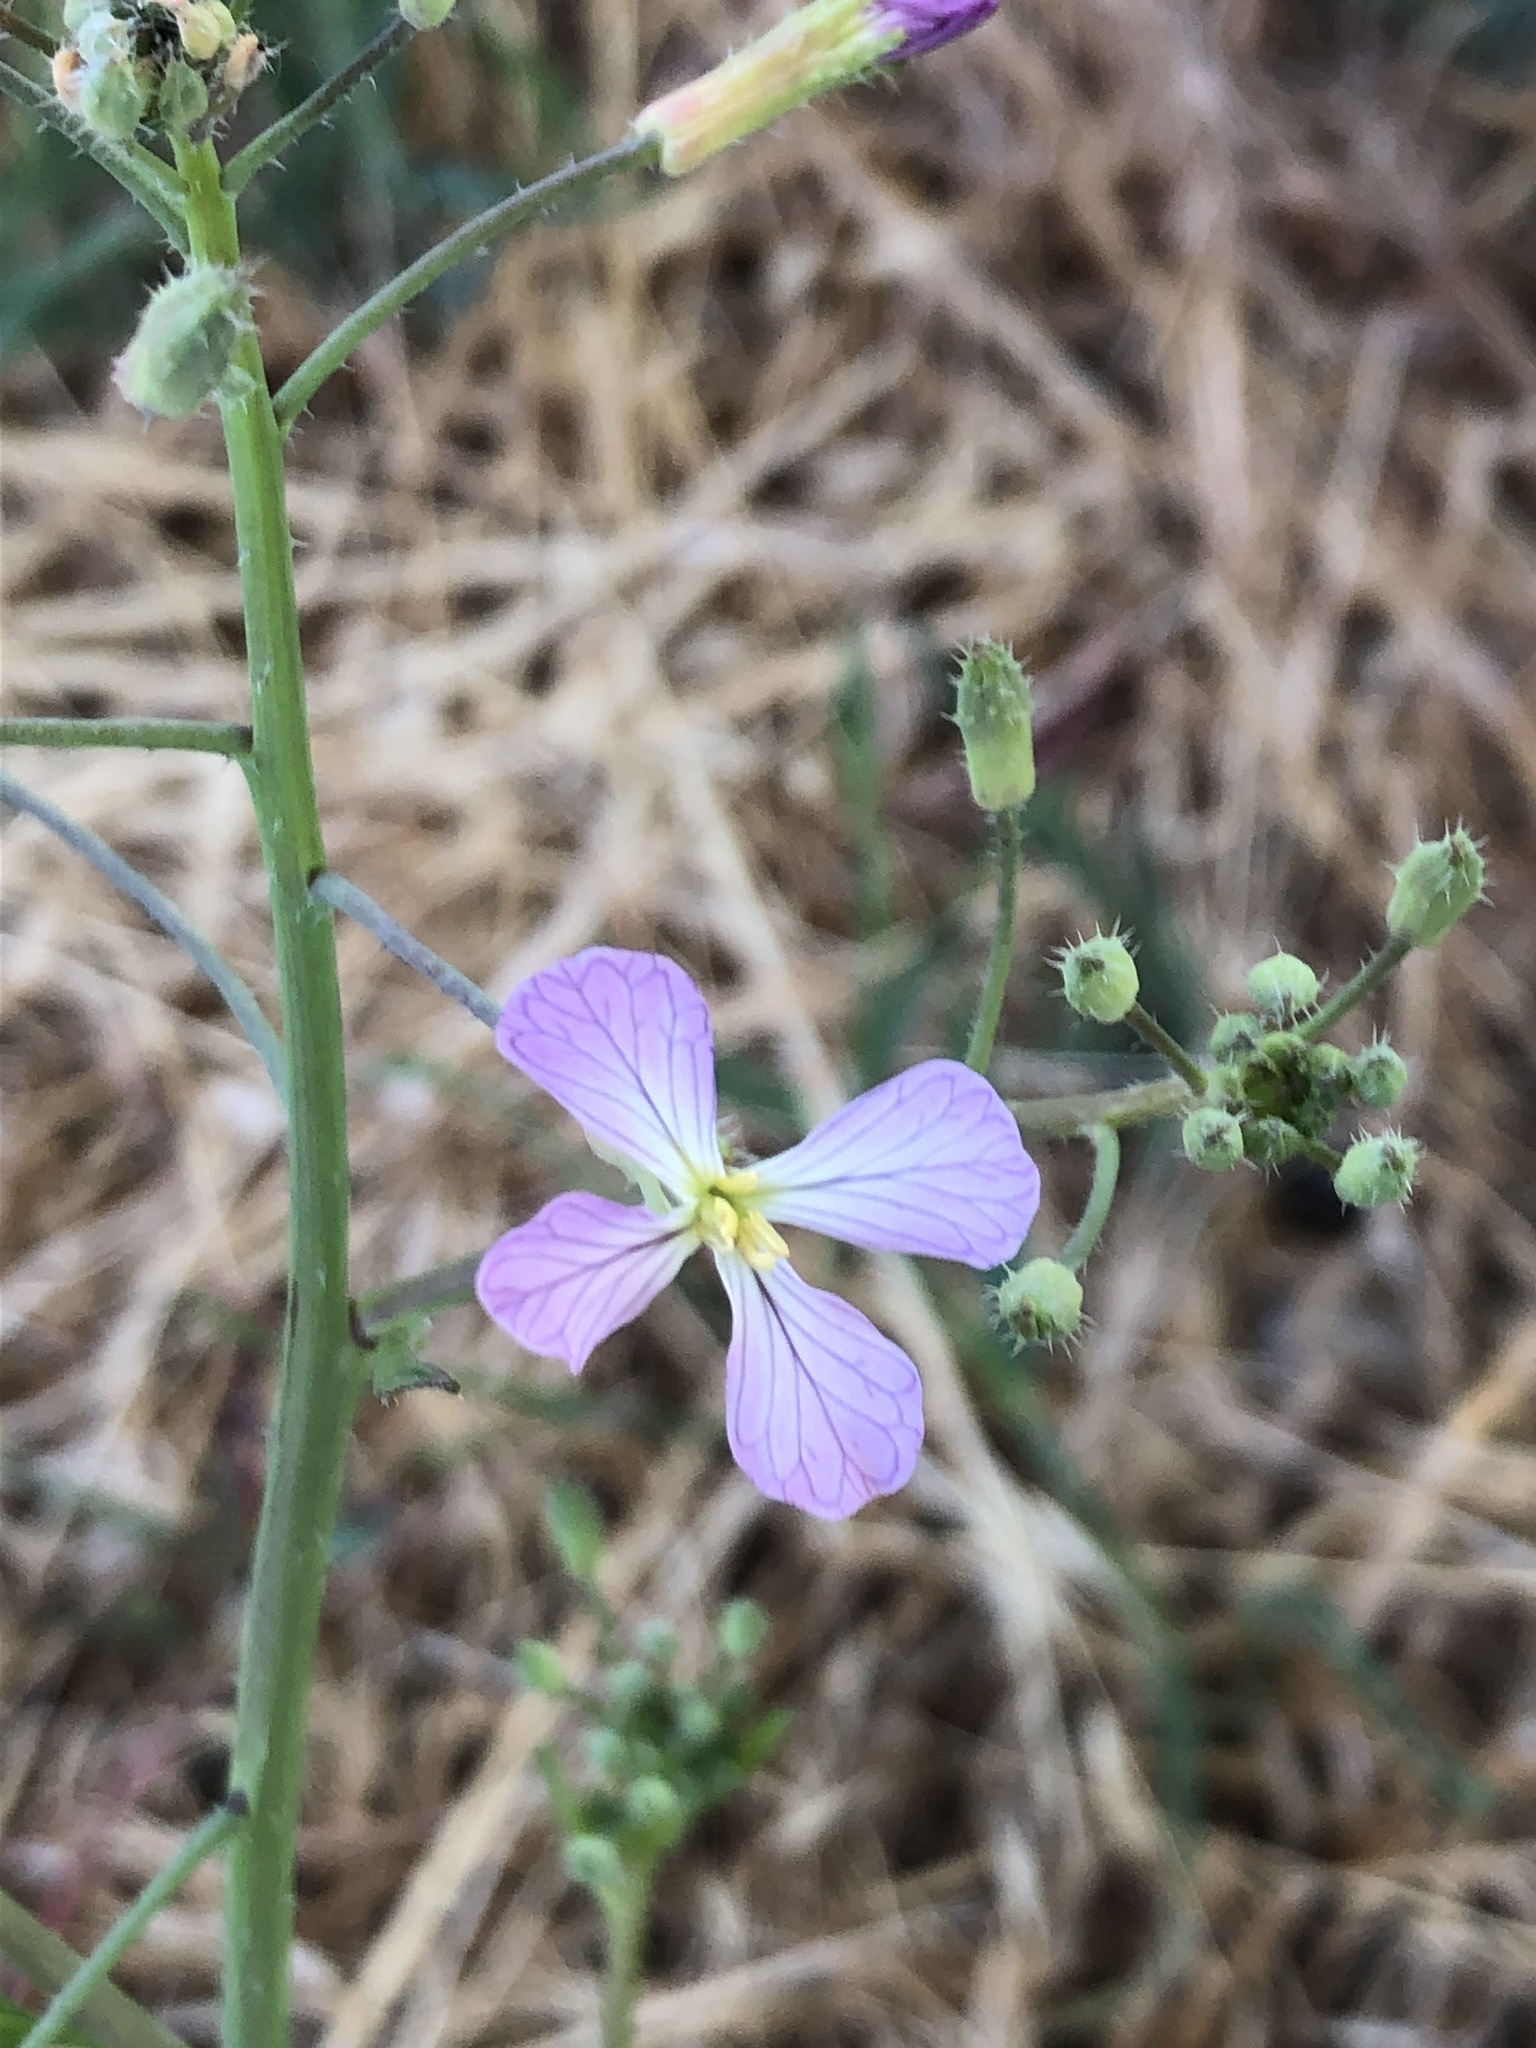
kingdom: Plantae
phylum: Tracheophyta
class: Magnoliopsida
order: Brassicales
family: Brassicaceae
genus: Raphanus
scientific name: Raphanus sativus
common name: Cultivated radish
